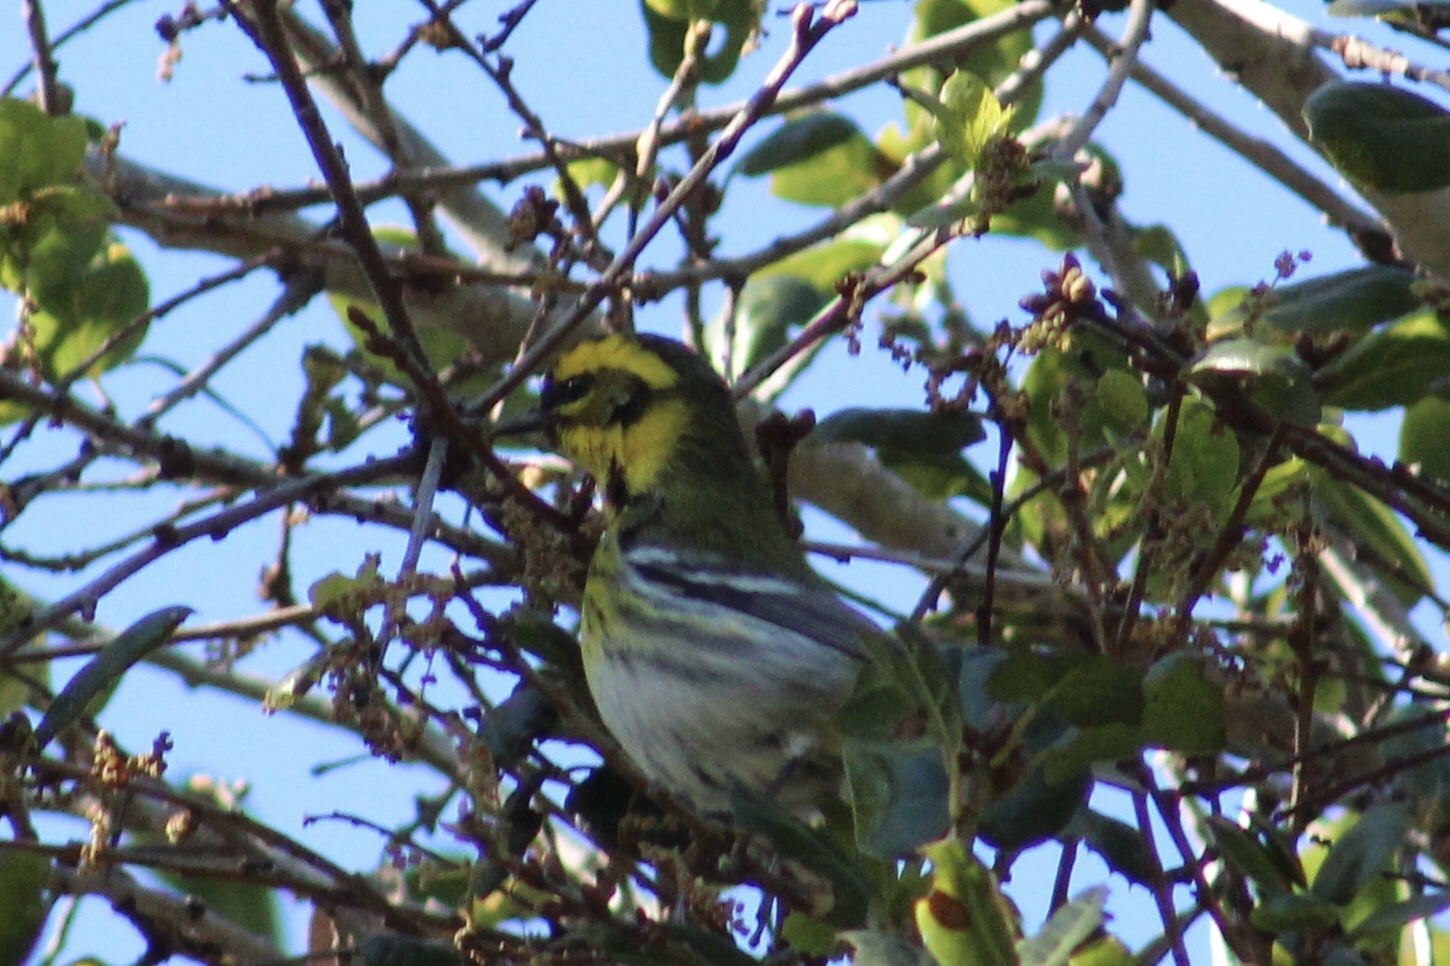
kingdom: Animalia
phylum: Chordata
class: Aves
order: Passeriformes
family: Parulidae
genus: Setophaga
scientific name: Setophaga townsendi
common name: Townsend's warbler
